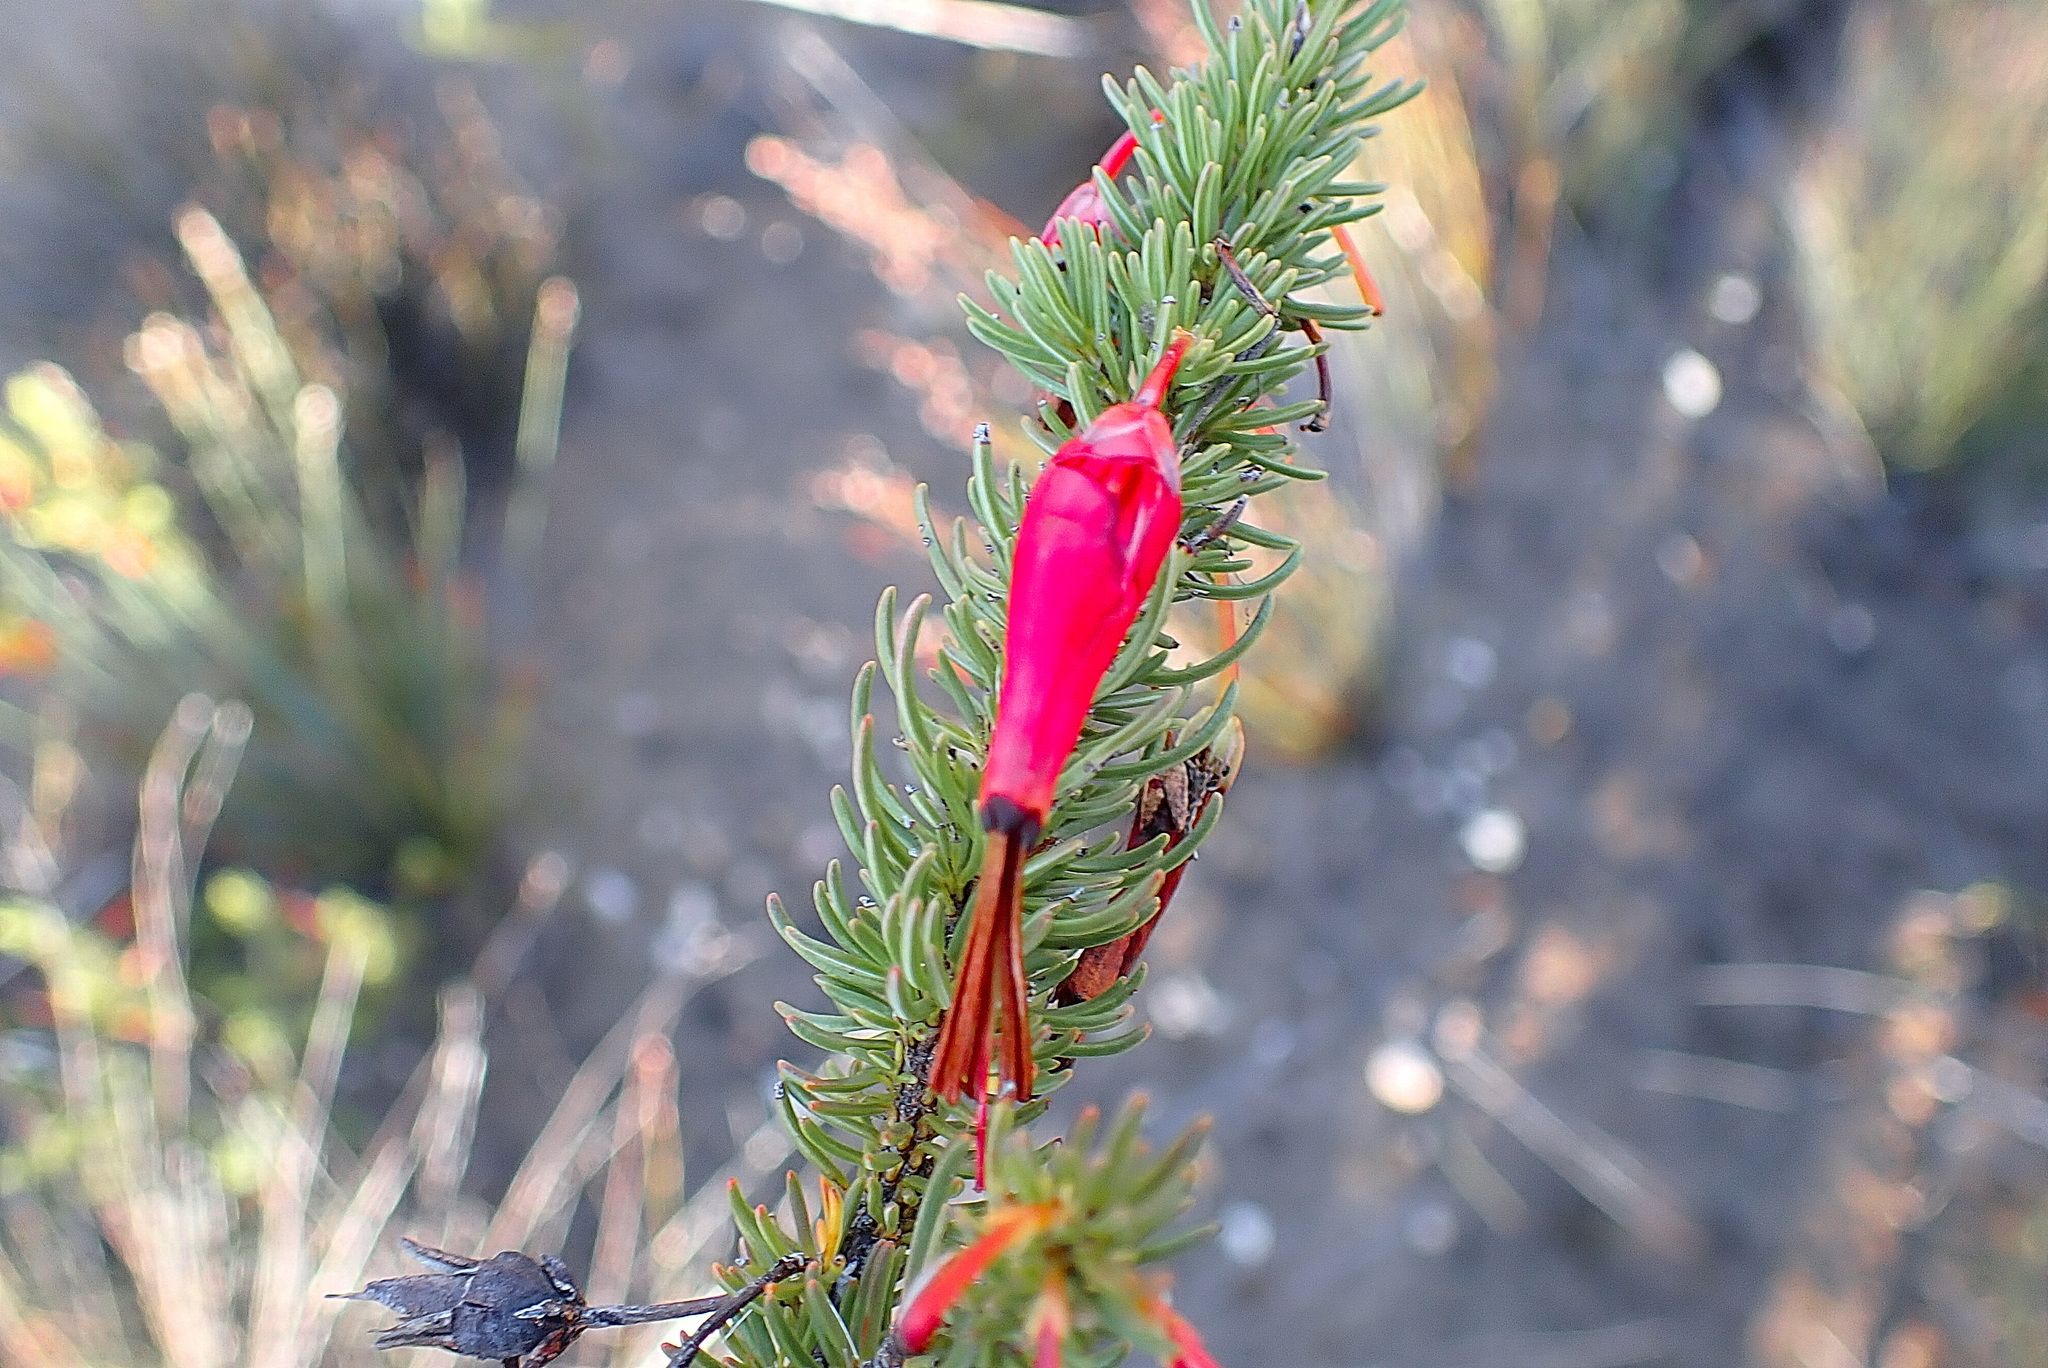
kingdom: Plantae
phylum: Tracheophyta
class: Magnoliopsida
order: Ericales
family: Ericaceae
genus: Erica
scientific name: Erica plukenetii
